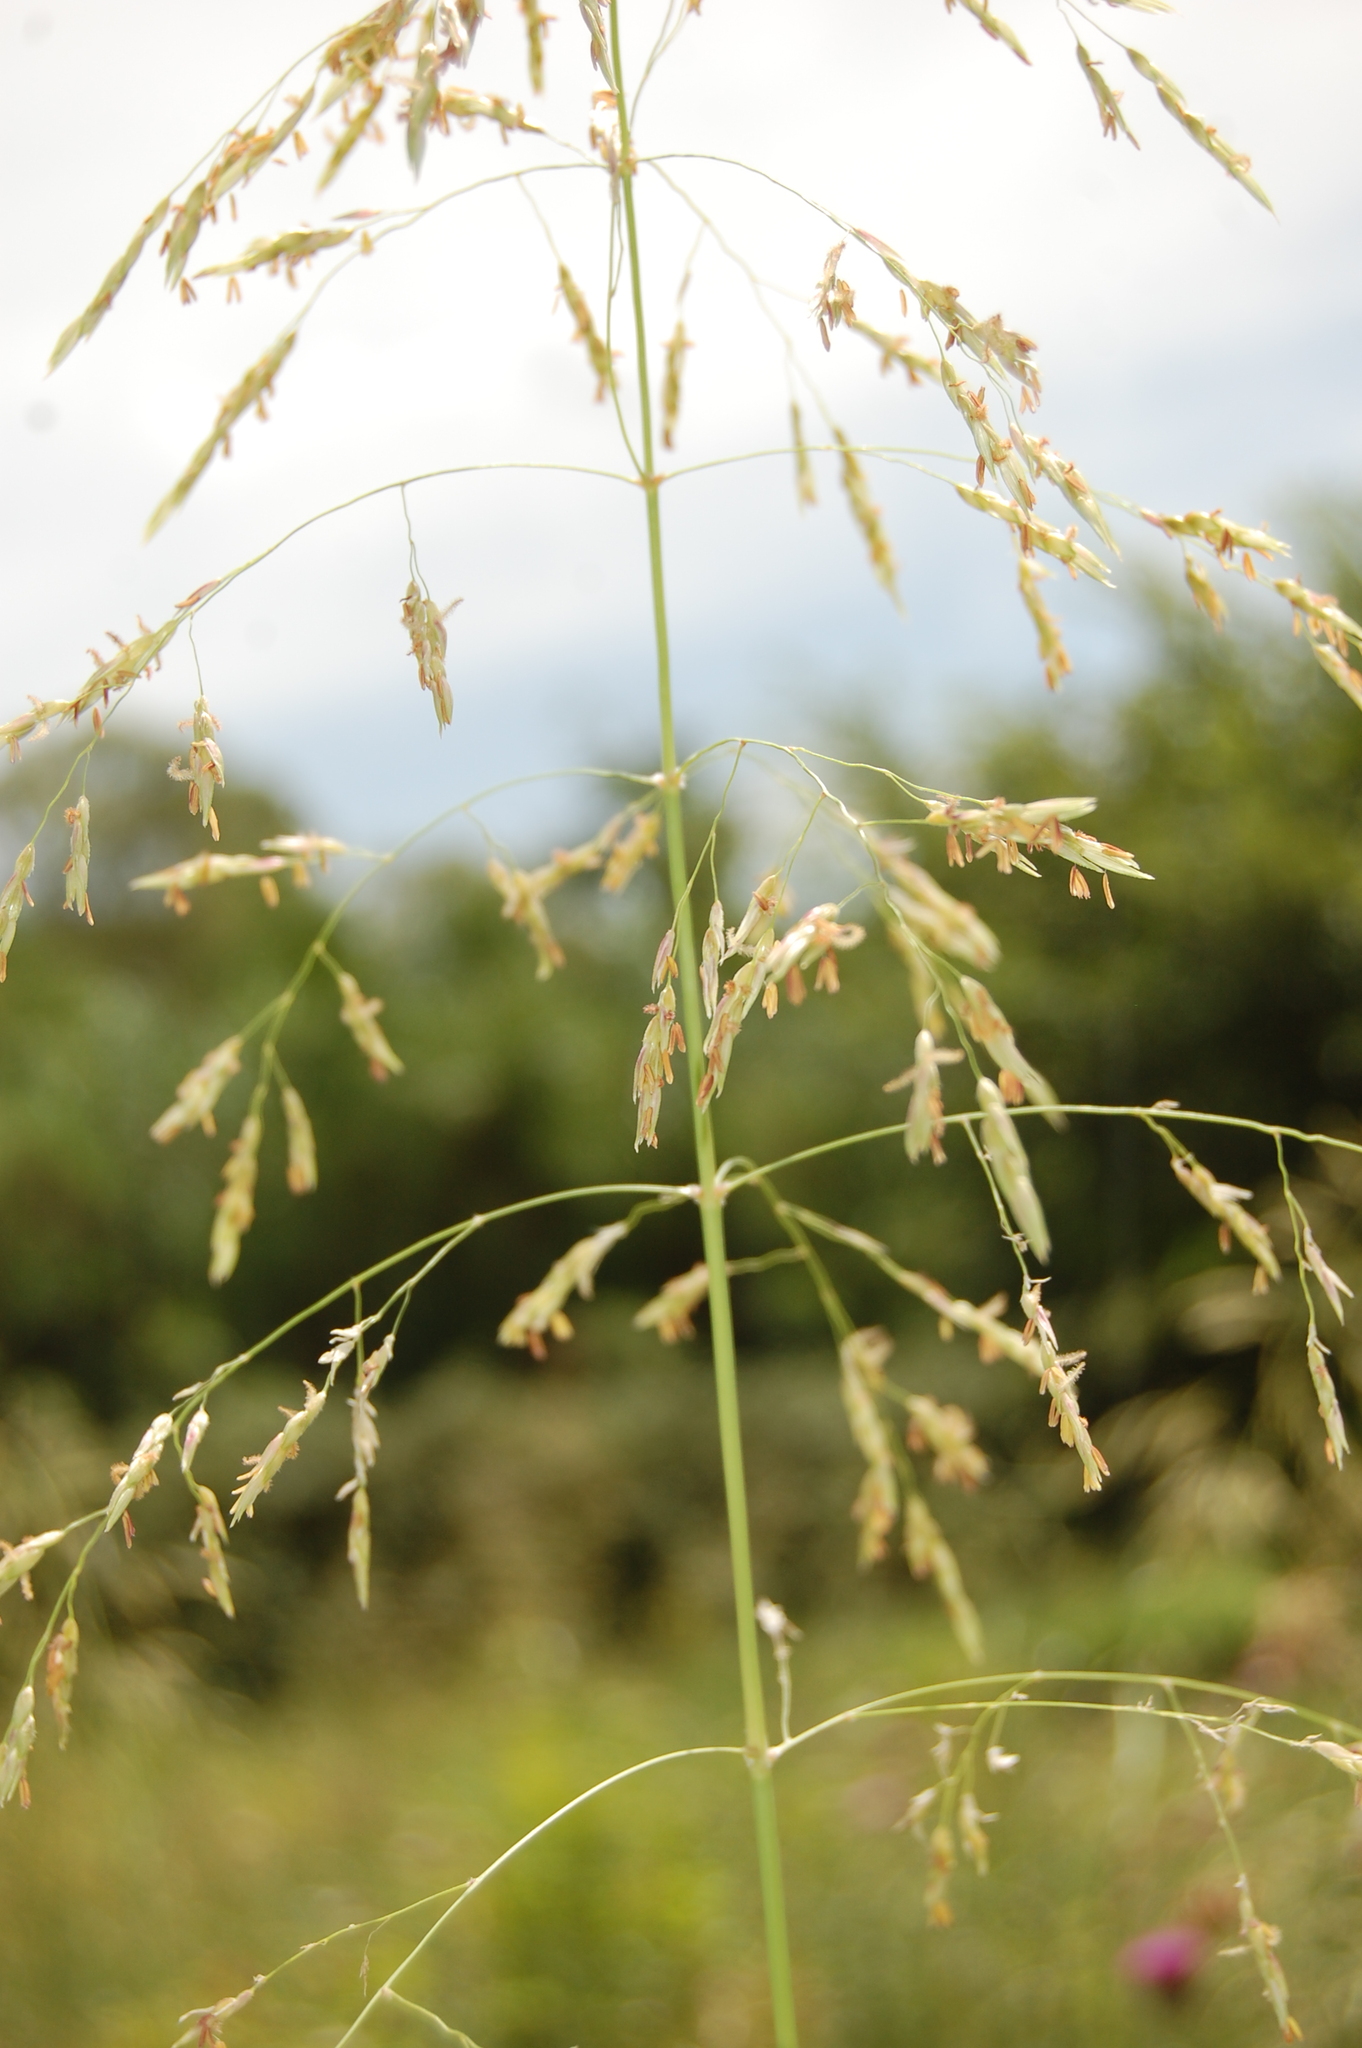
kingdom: Plantae
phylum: Tracheophyta
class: Liliopsida
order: Poales
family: Poaceae
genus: Sorghum
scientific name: Sorghum halepense
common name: Johnson-grass
